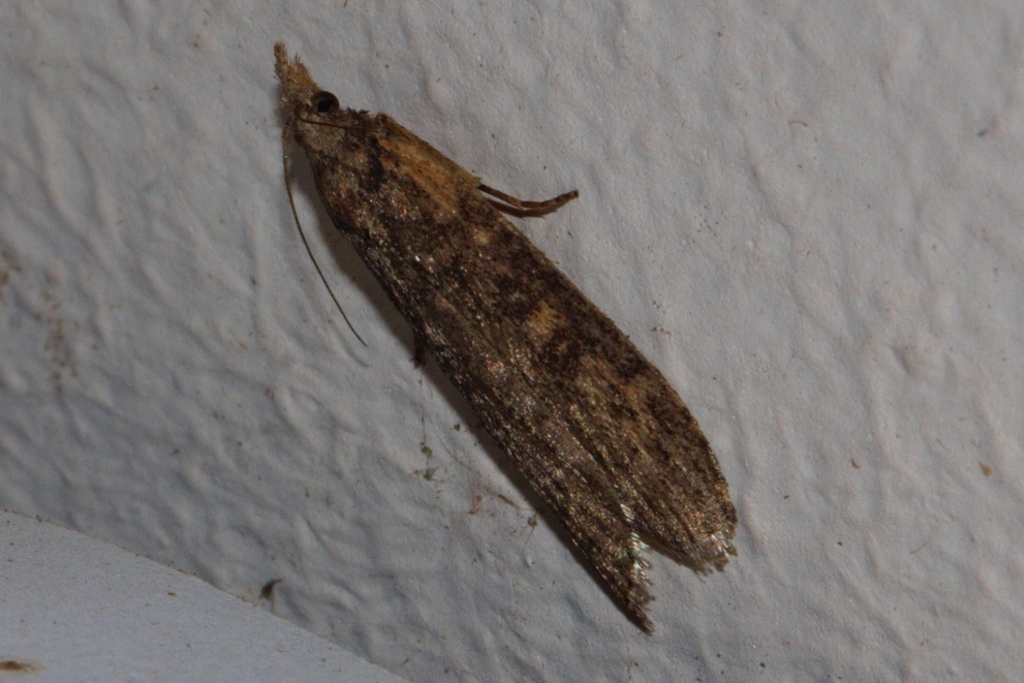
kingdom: Animalia
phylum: Arthropoda
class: Insecta
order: Lepidoptera
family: Pyralidae
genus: Lamoria
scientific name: Lamoria imbella
